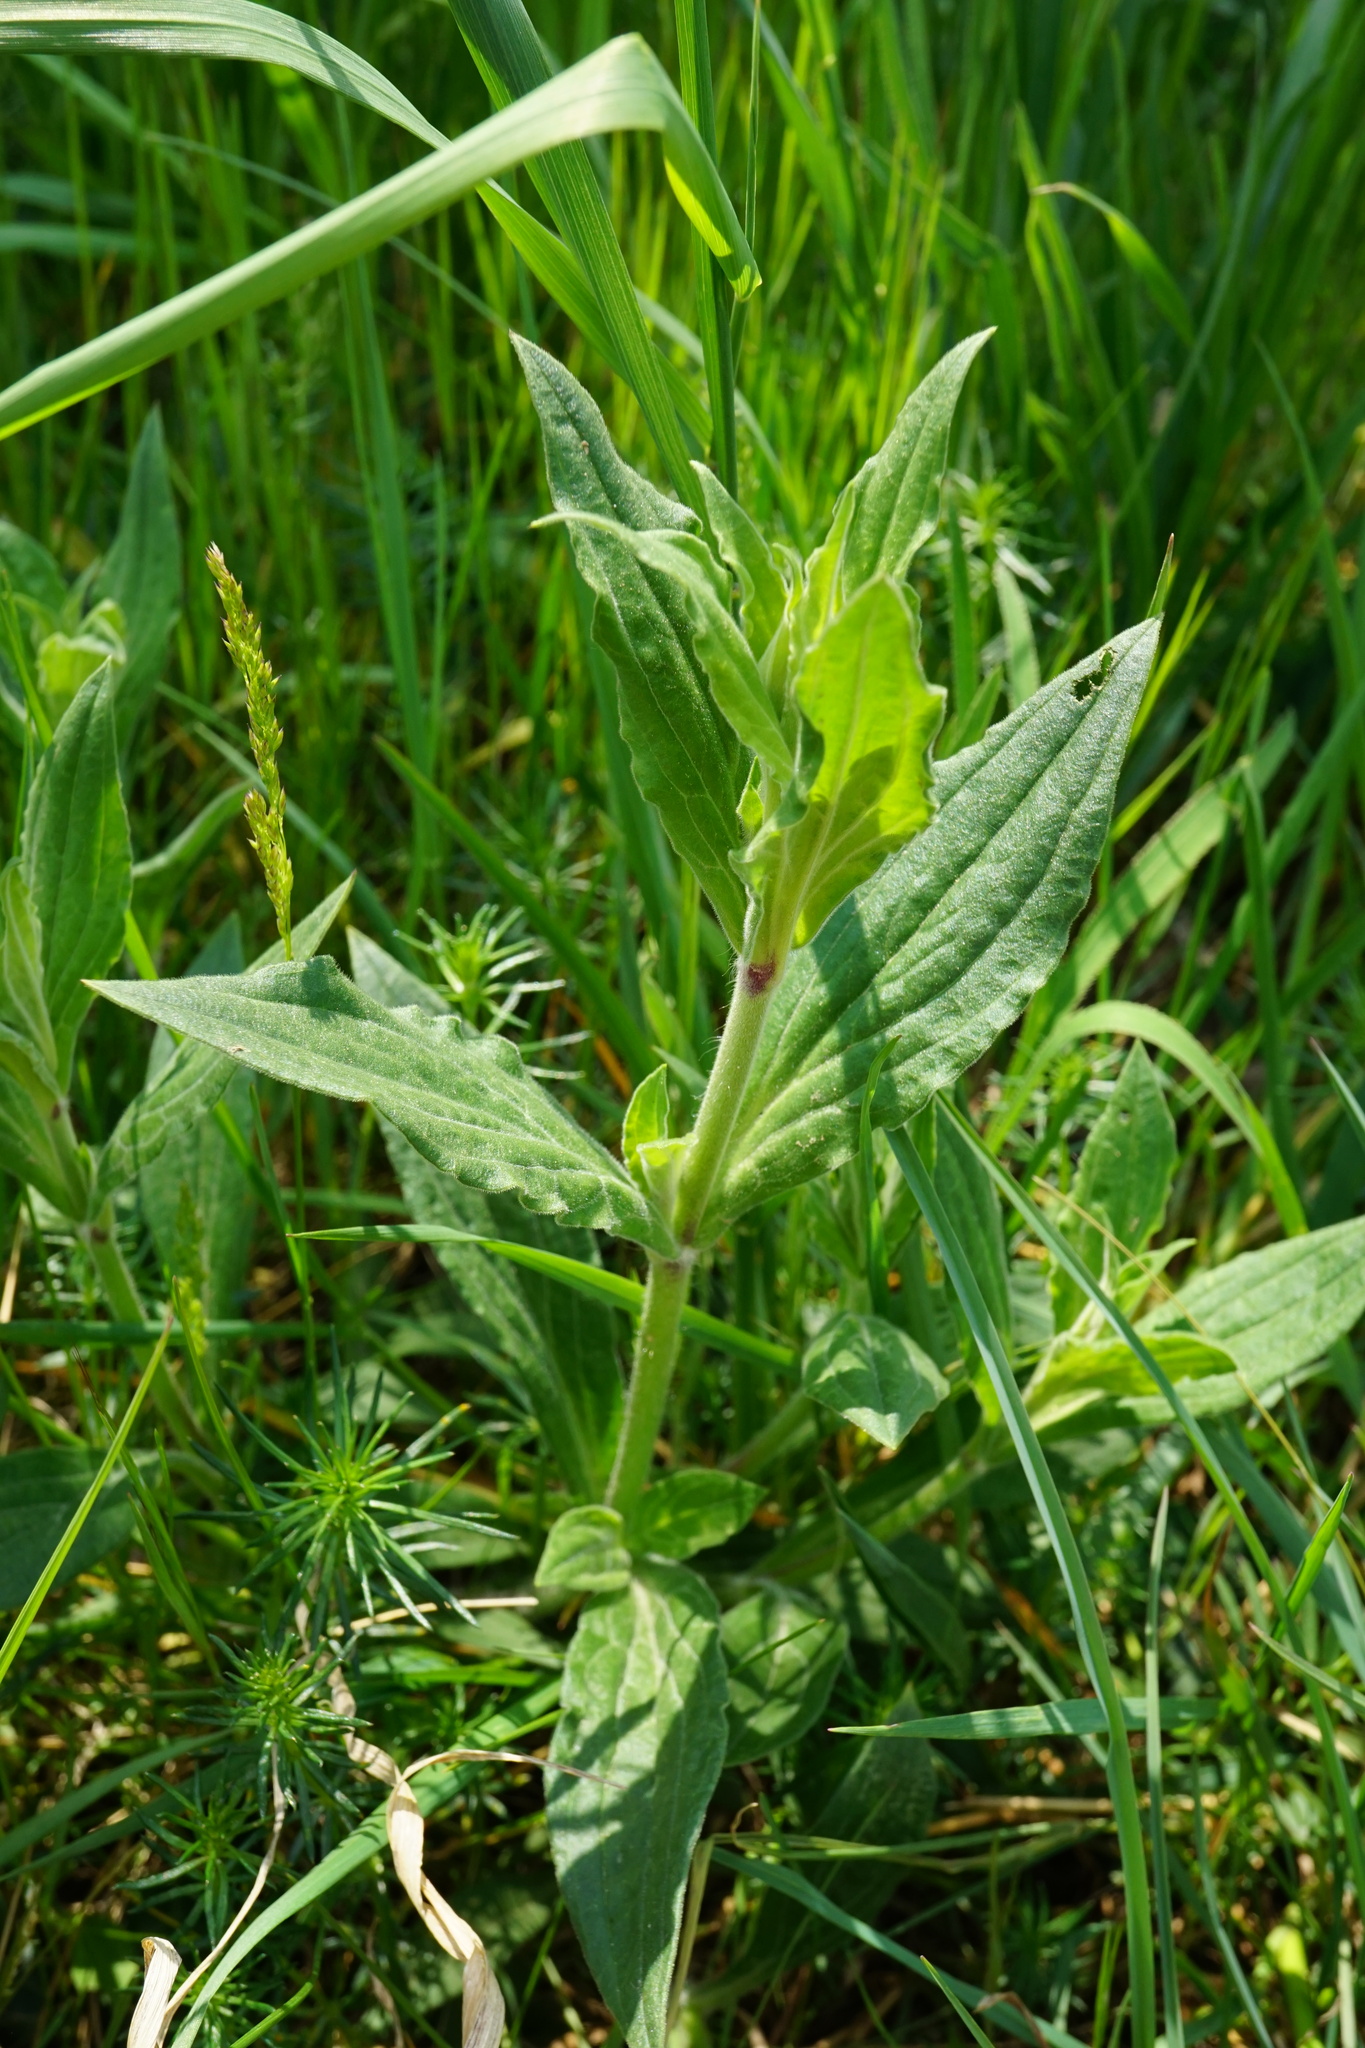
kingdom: Plantae
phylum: Tracheophyta
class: Magnoliopsida
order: Caryophyllales
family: Caryophyllaceae
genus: Silene
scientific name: Silene latifolia
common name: White campion
